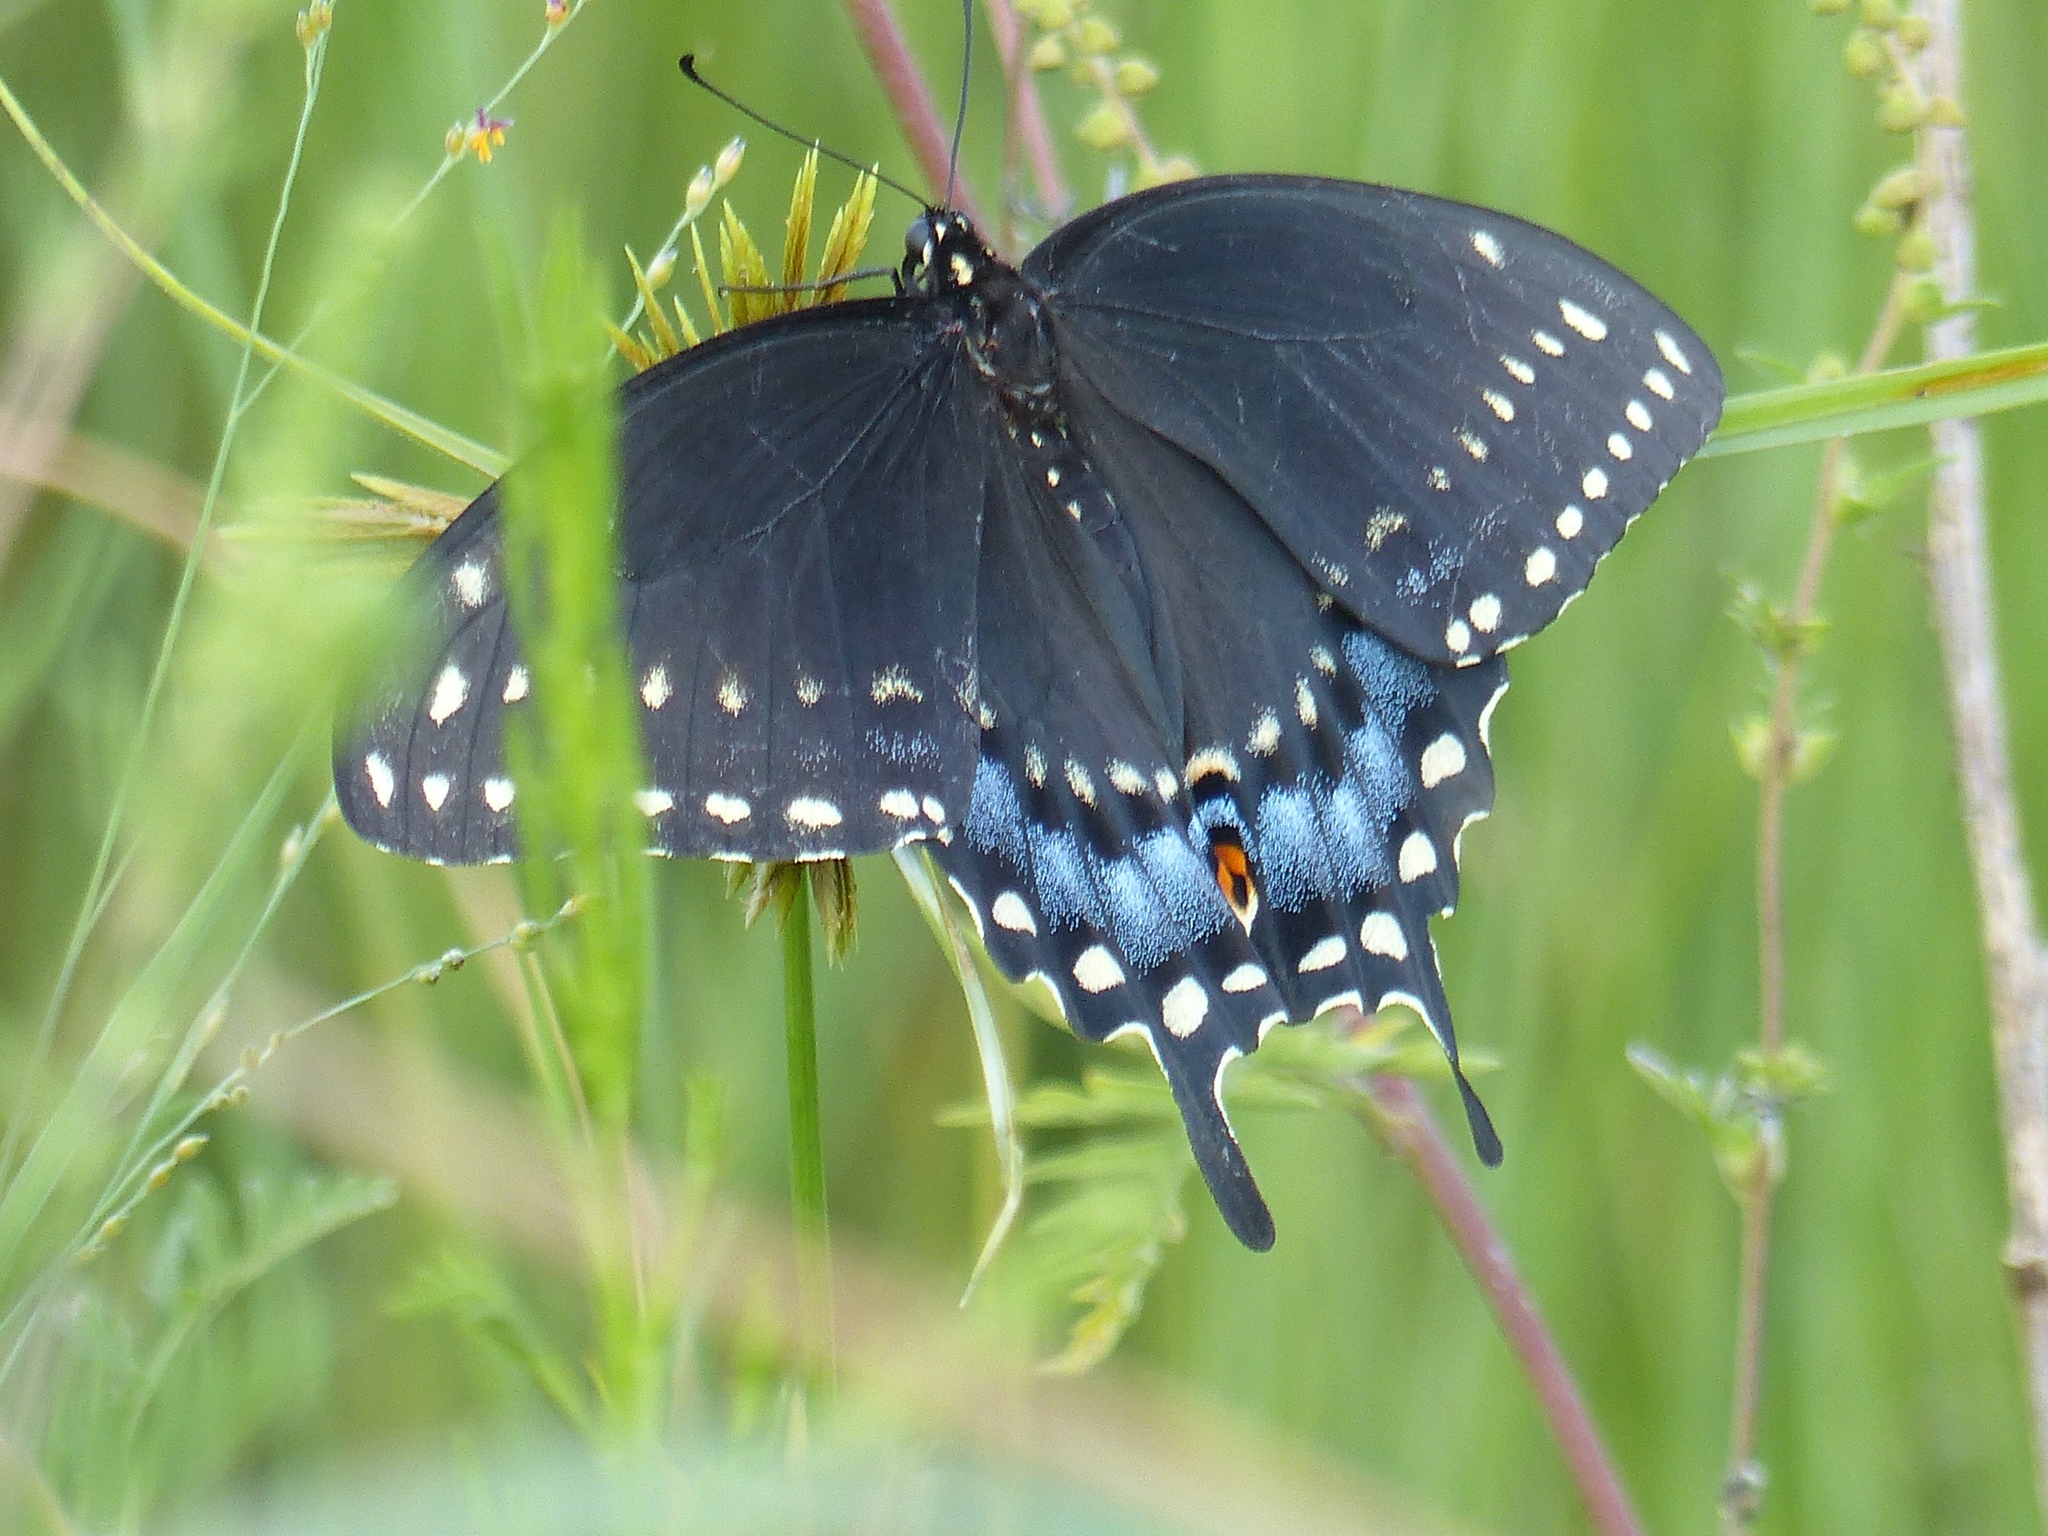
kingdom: Animalia
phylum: Arthropoda
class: Insecta
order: Lepidoptera
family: Papilionidae
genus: Papilio
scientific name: Papilio polyxenes
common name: Black swallowtail
